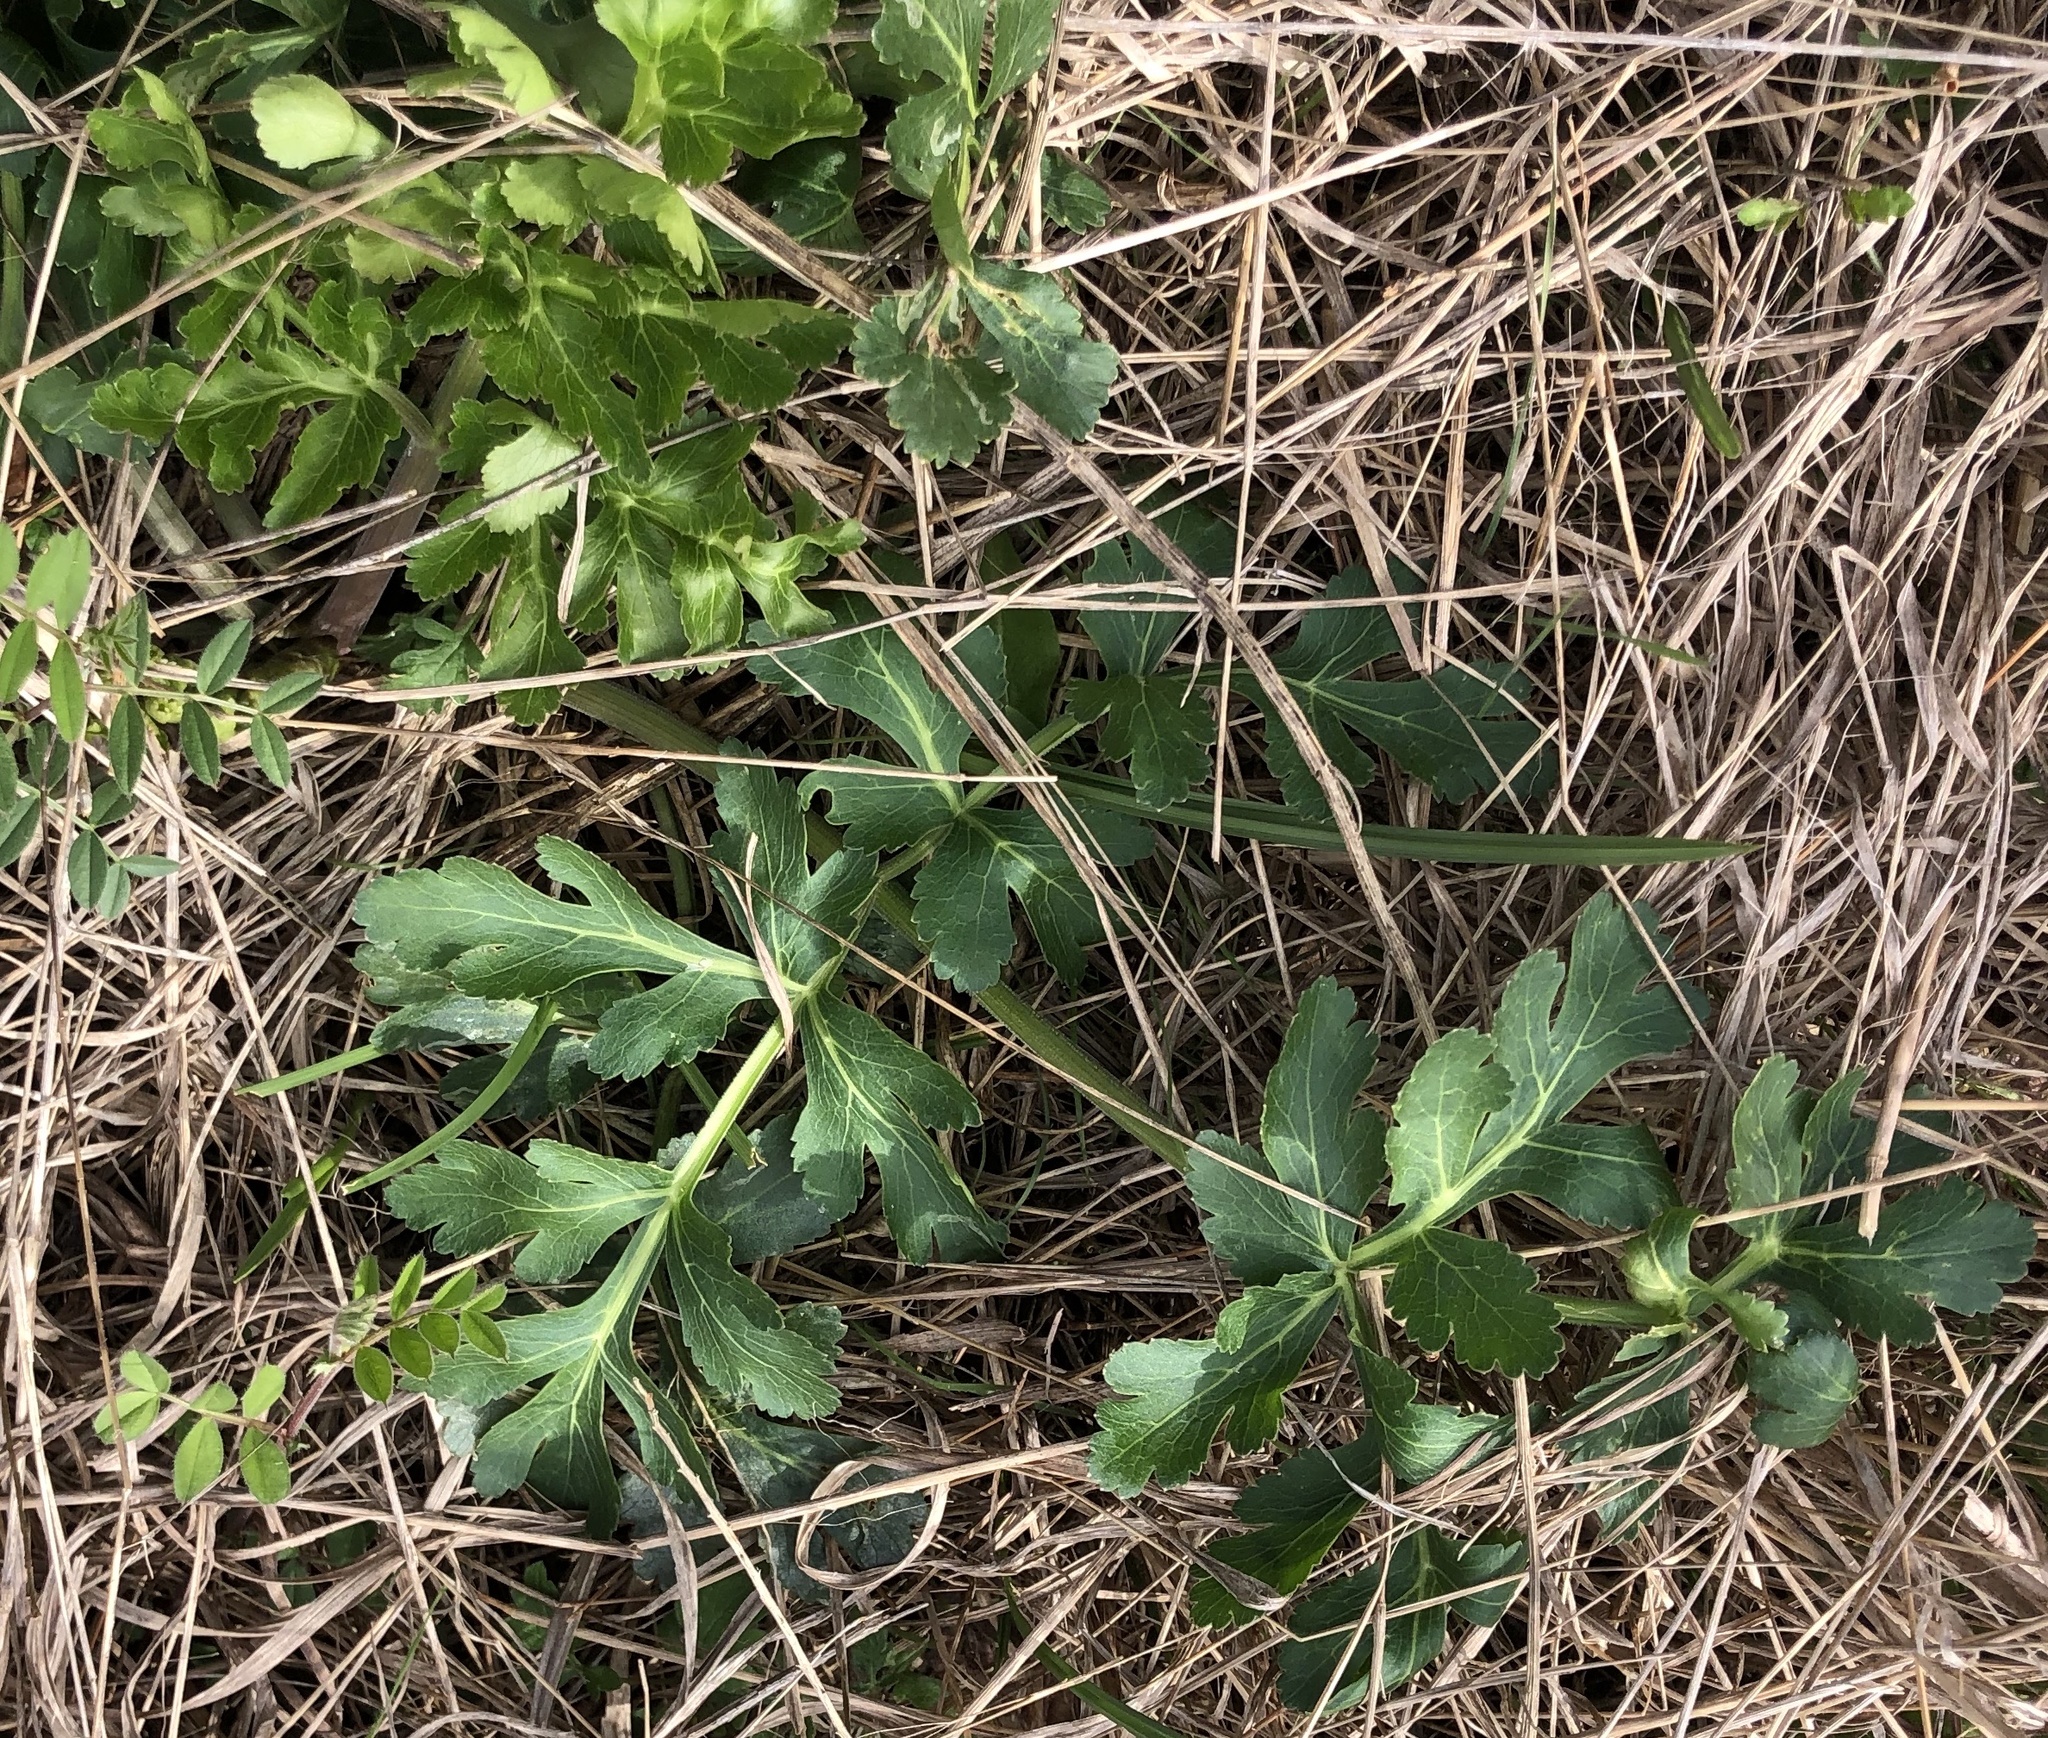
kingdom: Plantae
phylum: Tracheophyta
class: Magnoliopsida
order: Apiales
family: Apiaceae
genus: Polytaenia
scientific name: Polytaenia texana
